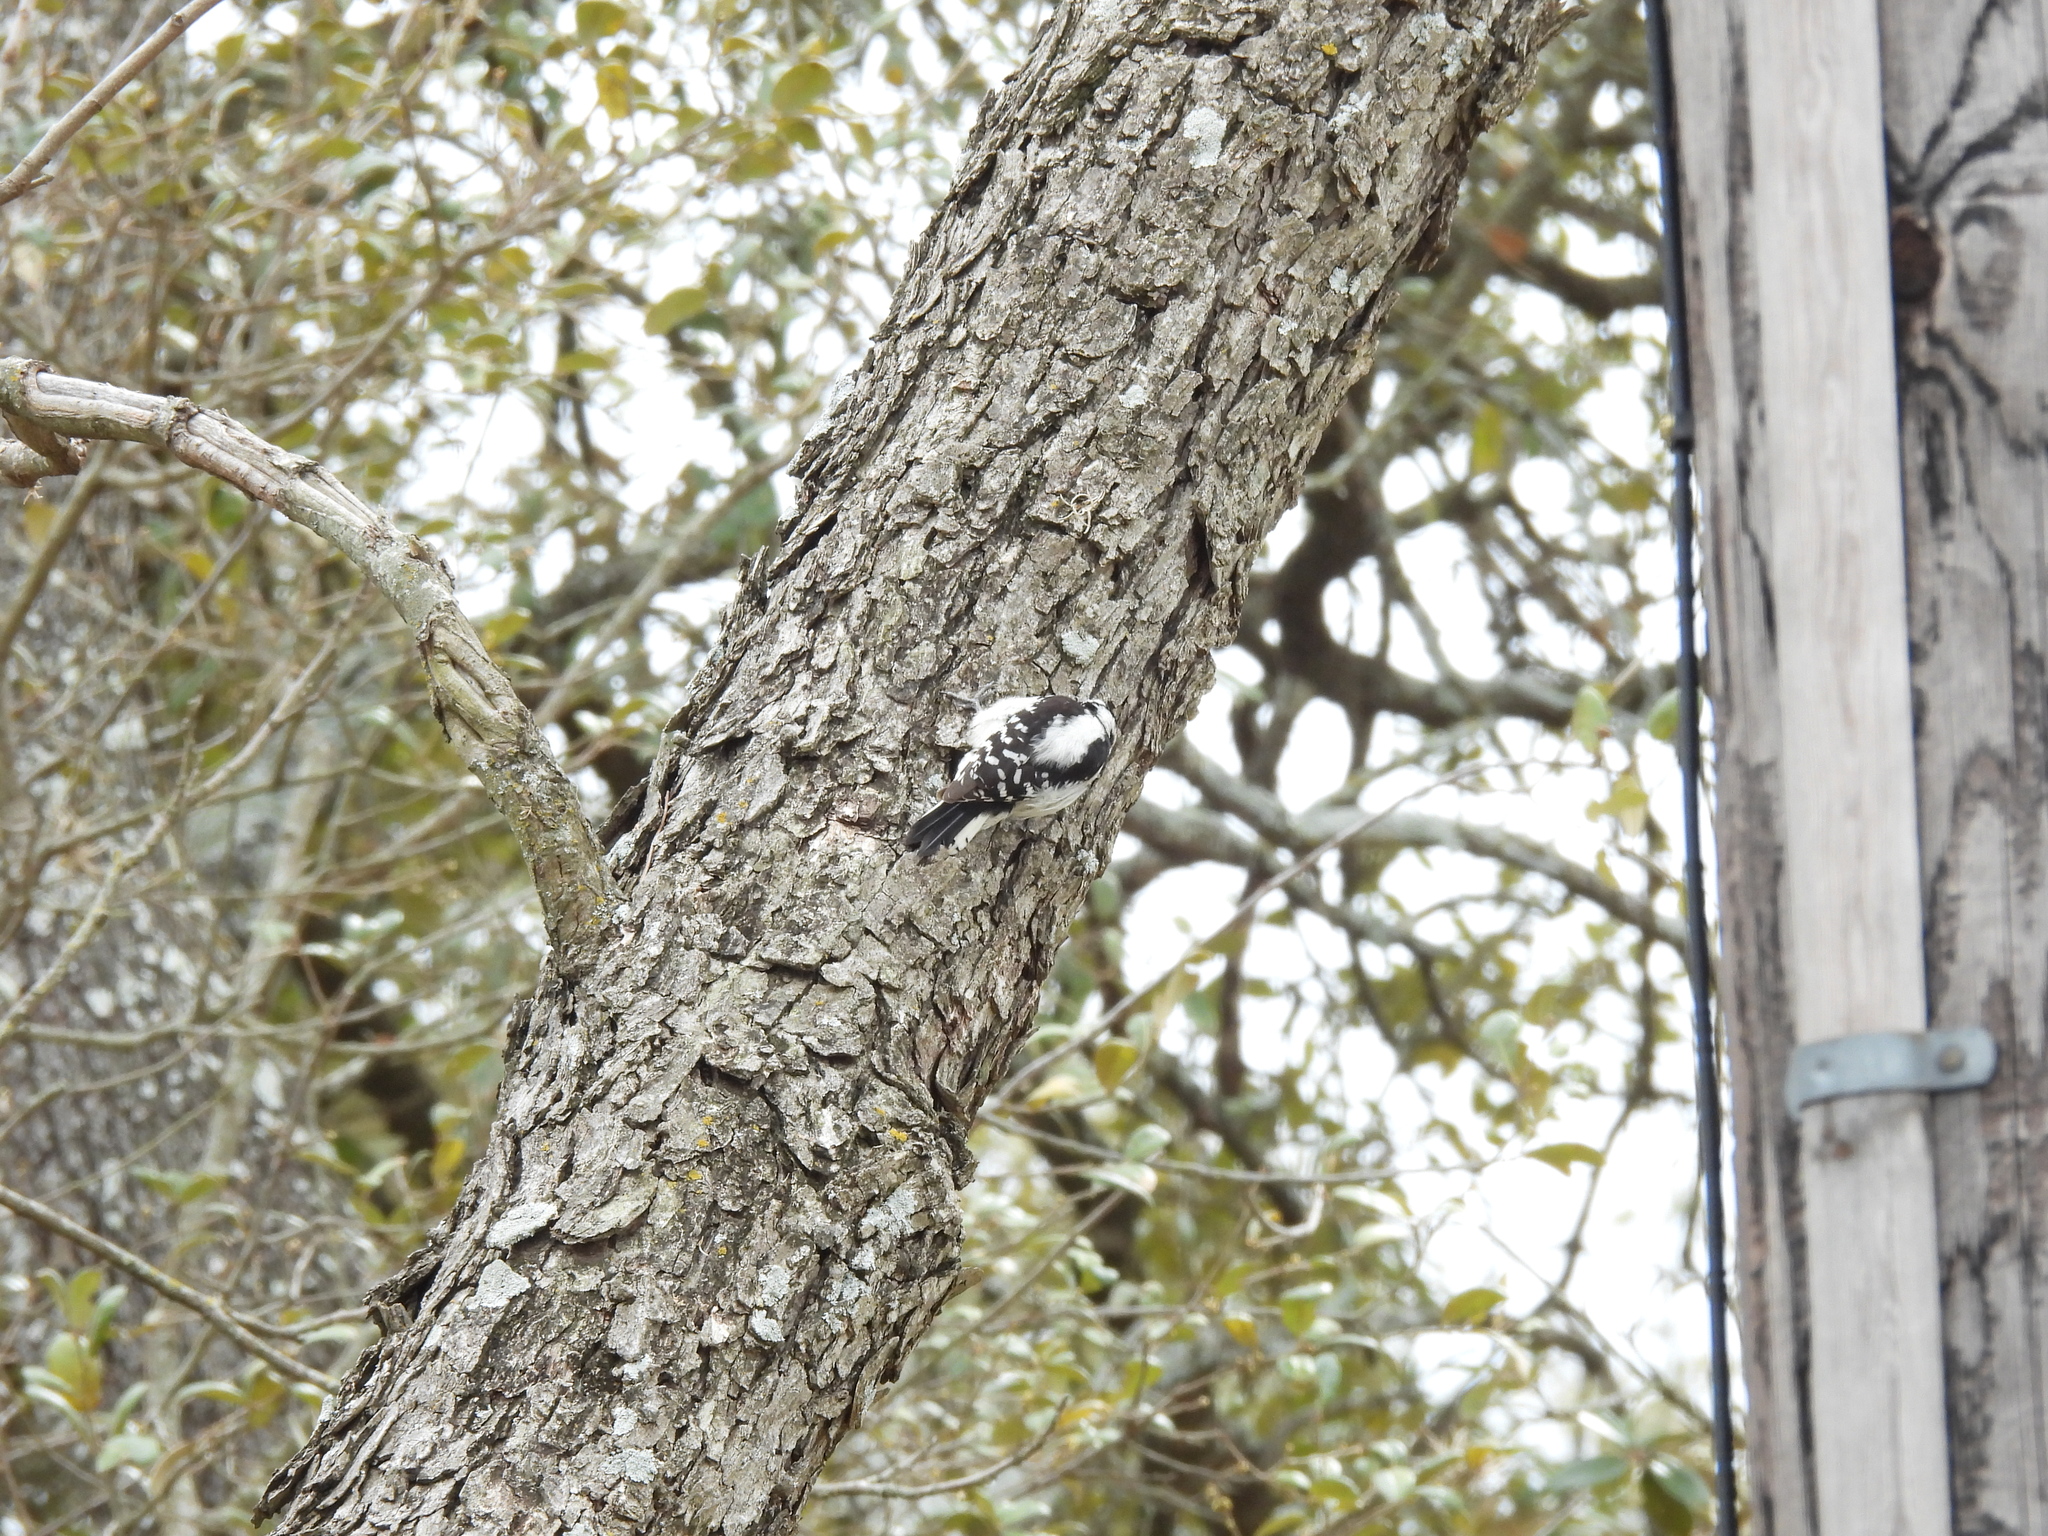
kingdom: Animalia
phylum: Chordata
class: Aves
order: Piciformes
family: Picidae
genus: Dryobates
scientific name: Dryobates pubescens
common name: Downy woodpecker
